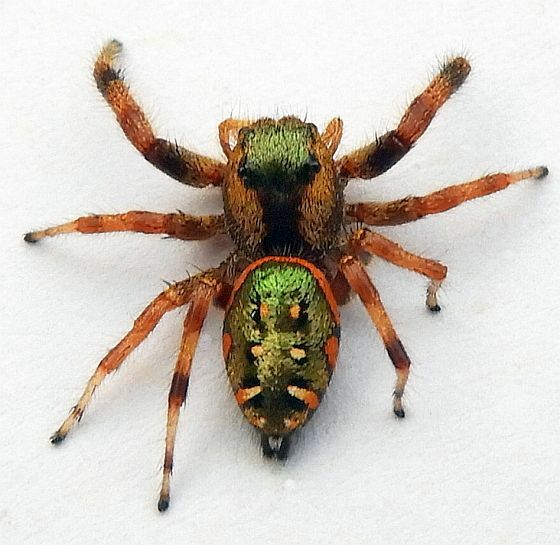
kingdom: Animalia
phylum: Arthropoda
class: Arachnida
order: Araneae
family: Salticidae
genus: Paraphidippus
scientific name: Paraphidippus aurantius
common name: Jumping spiders
